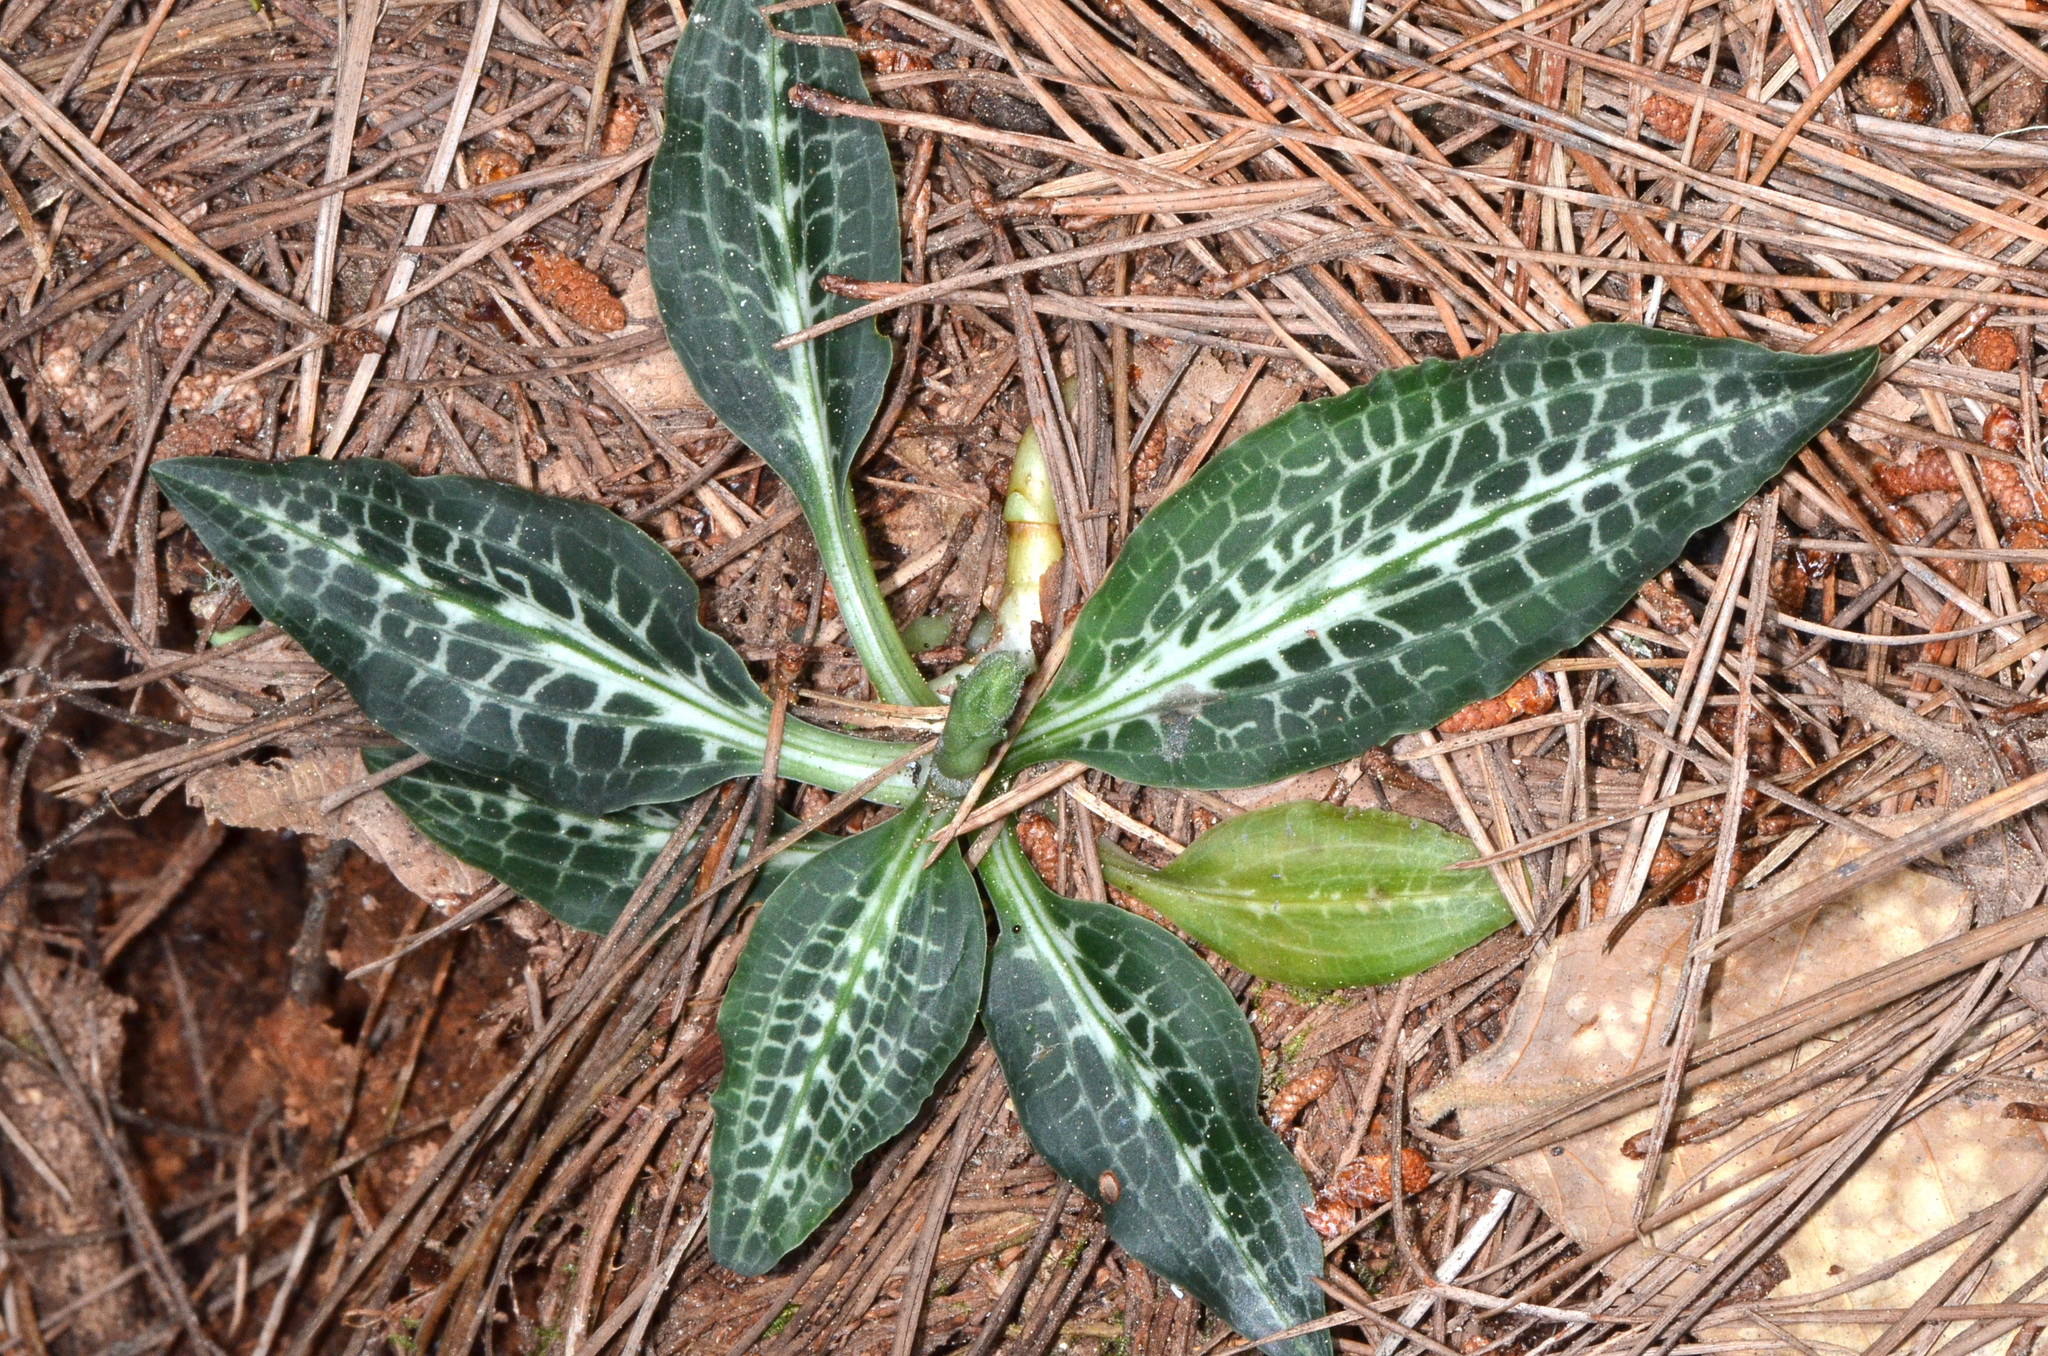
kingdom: Plantae
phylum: Tracheophyta
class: Liliopsida
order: Asparagales
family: Orchidaceae
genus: Goodyera
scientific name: Goodyera oblongifolia
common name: Giant rattlesnake-plantain
